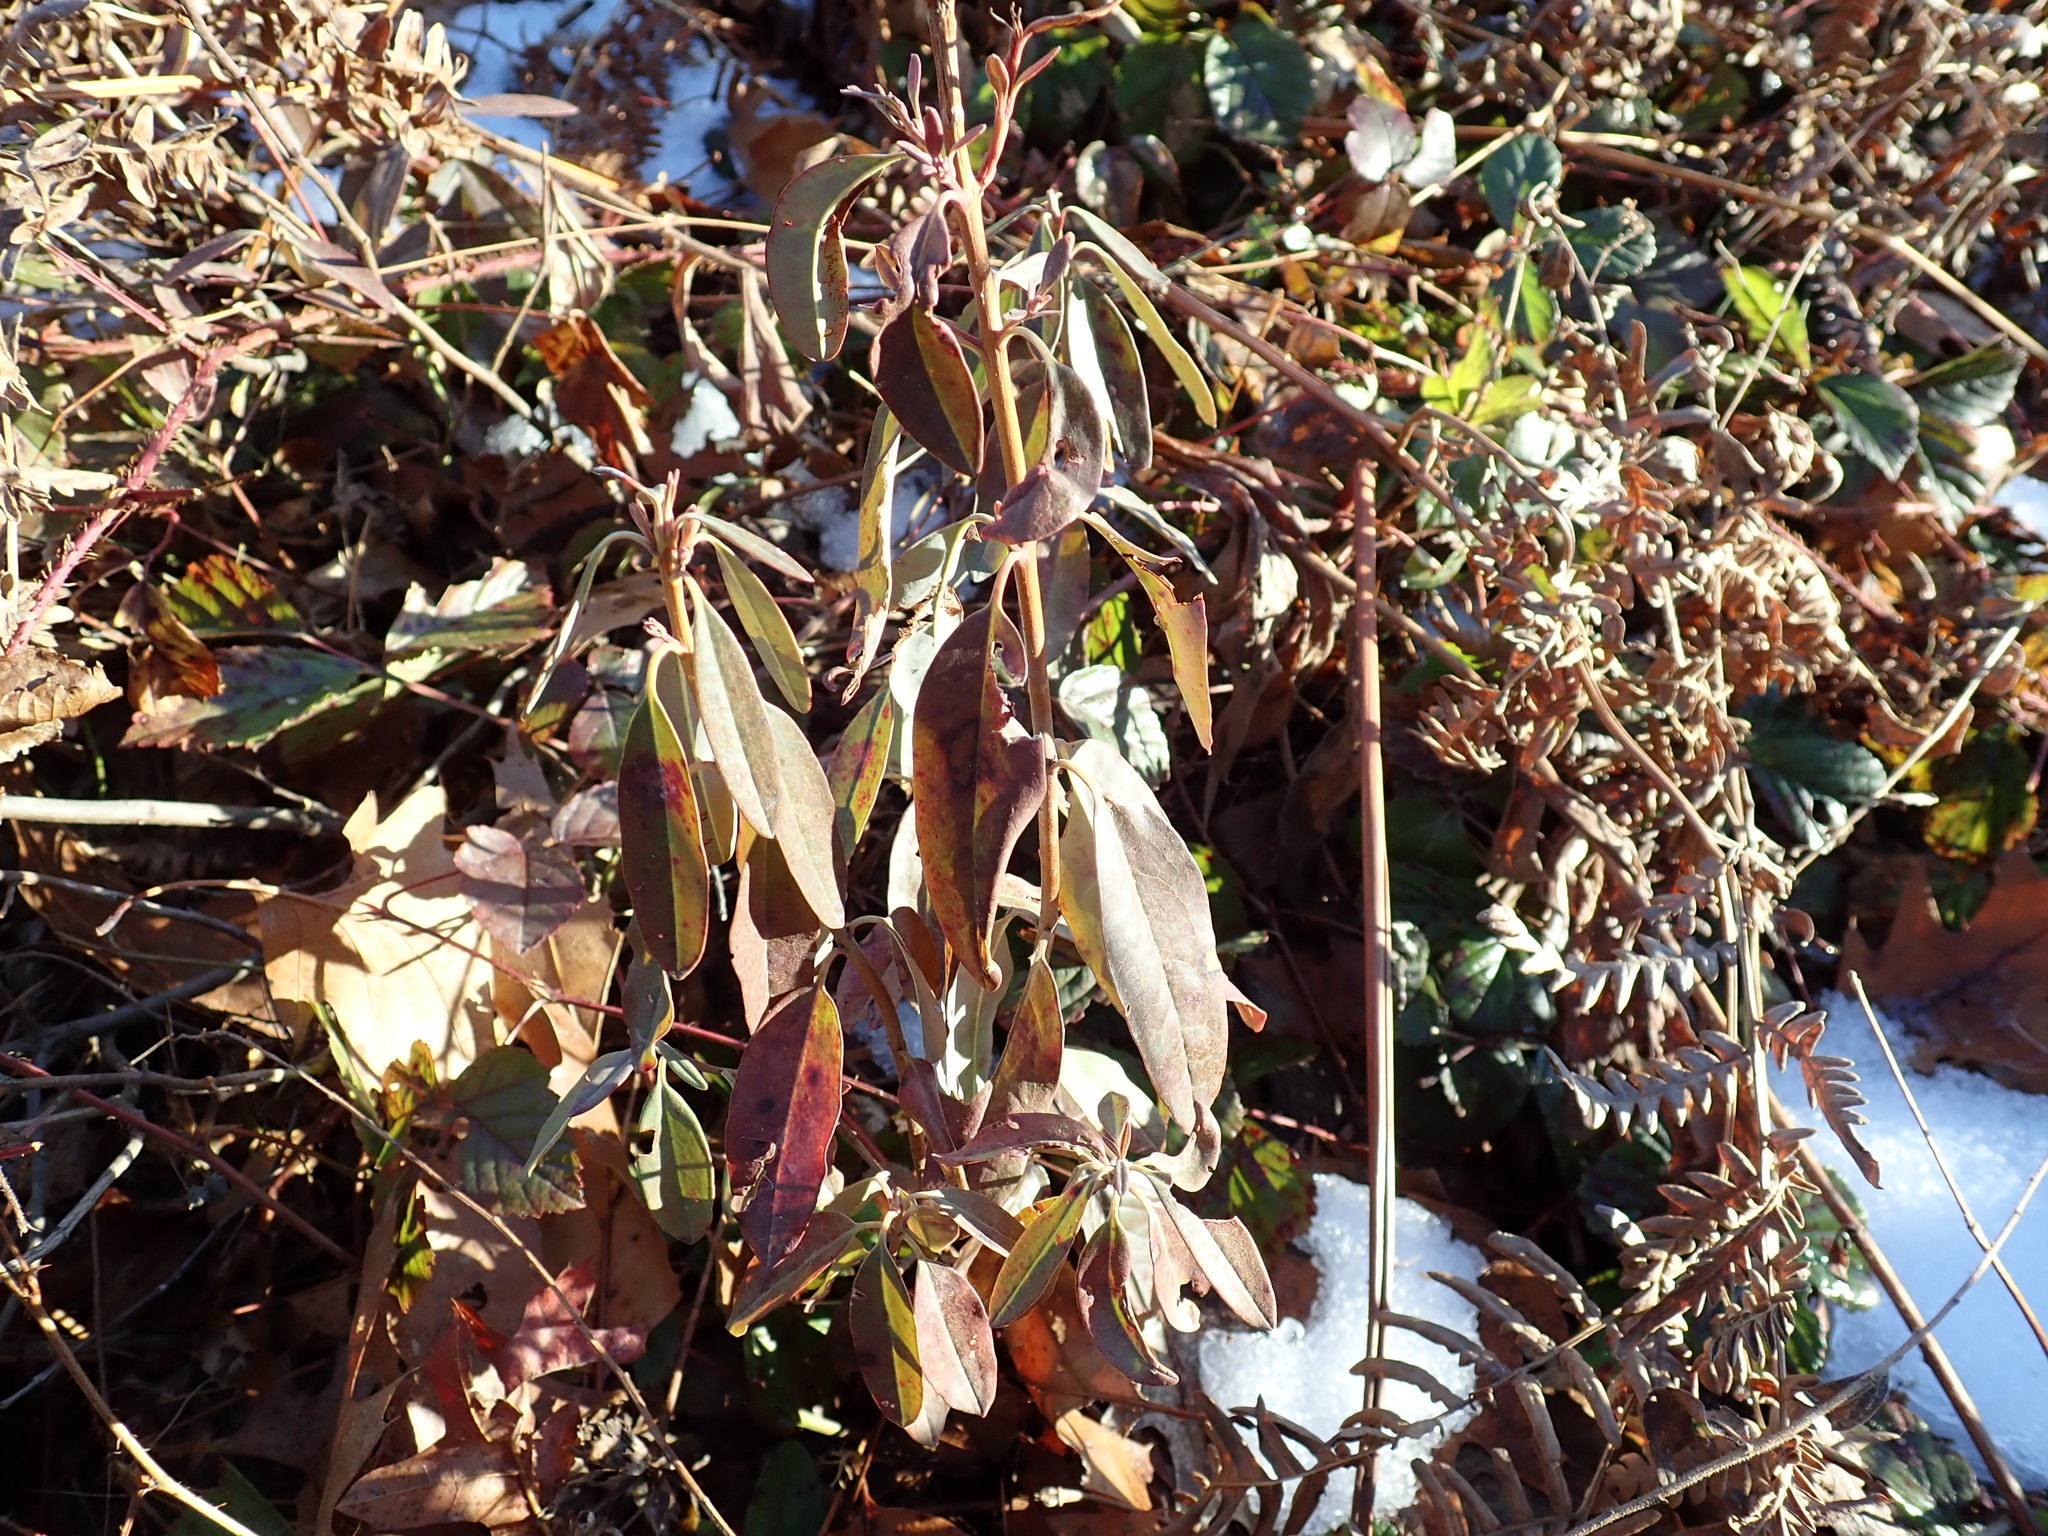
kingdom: Plantae
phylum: Tracheophyta
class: Magnoliopsida
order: Ericales
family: Ericaceae
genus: Kalmia
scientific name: Kalmia angustifolia
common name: Sheep-laurel
